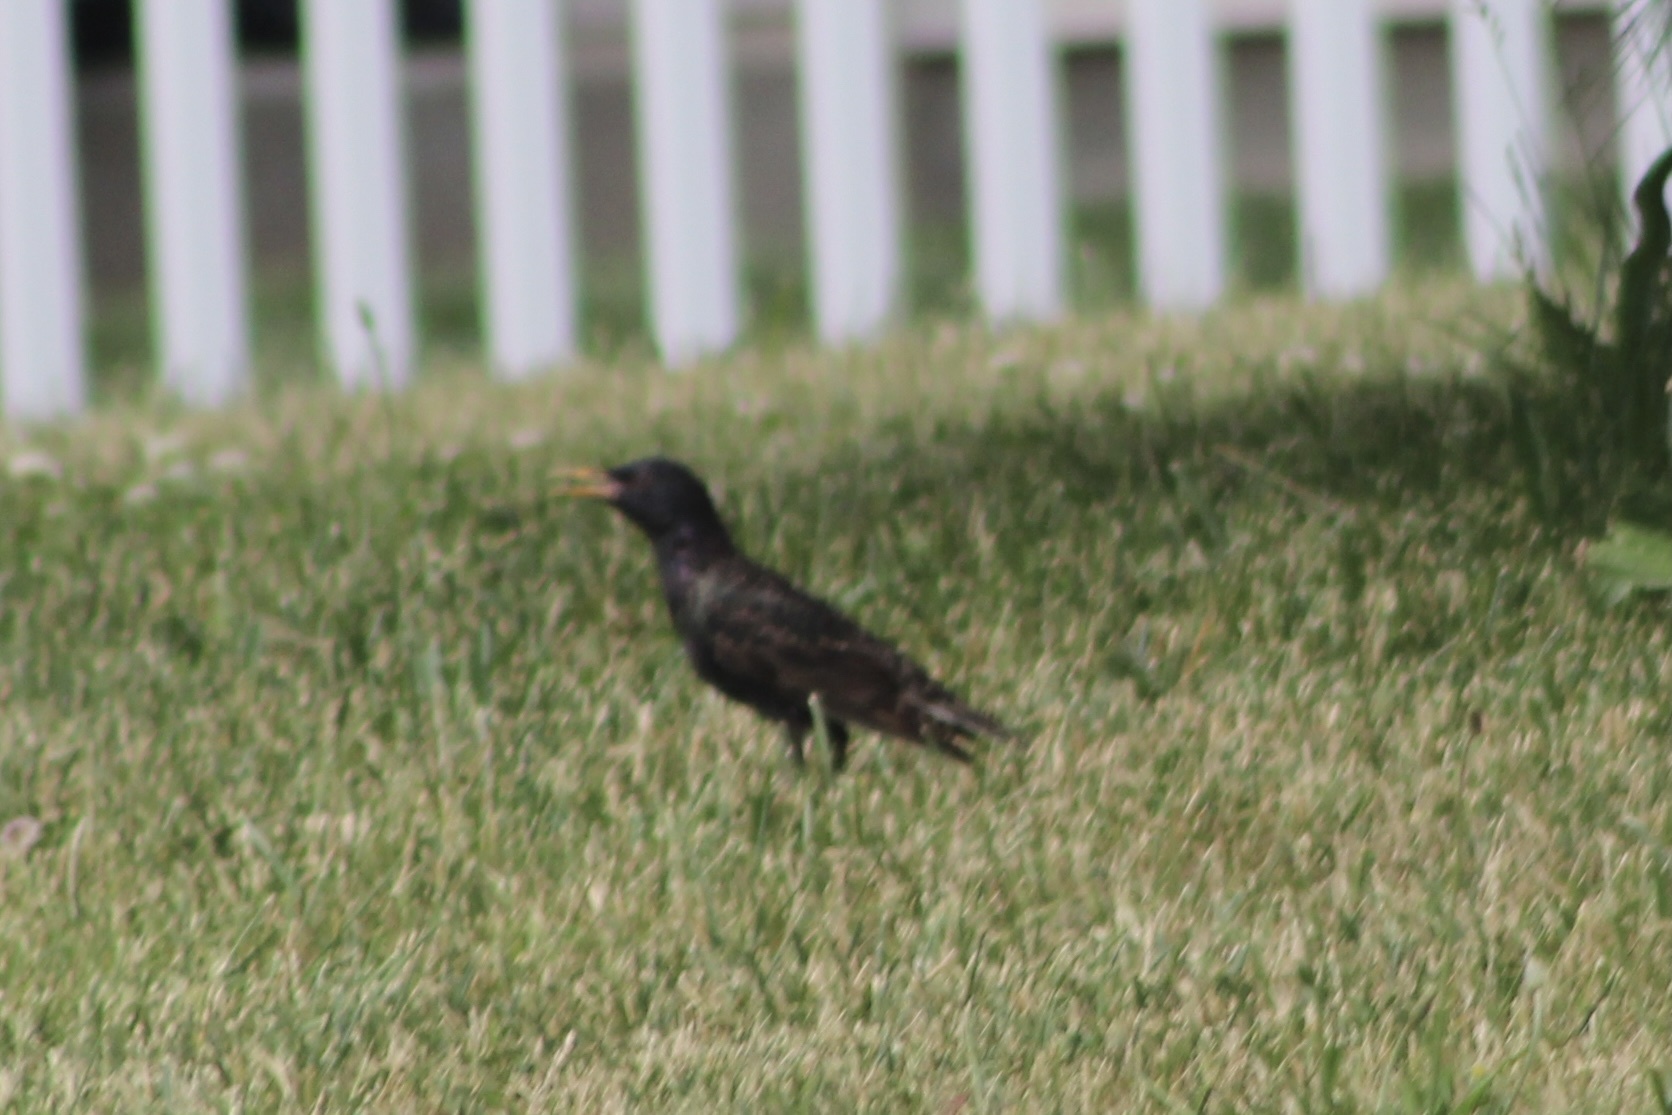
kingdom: Animalia
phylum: Chordata
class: Aves
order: Passeriformes
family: Sturnidae
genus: Sturnus
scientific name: Sturnus vulgaris
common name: Common starling
